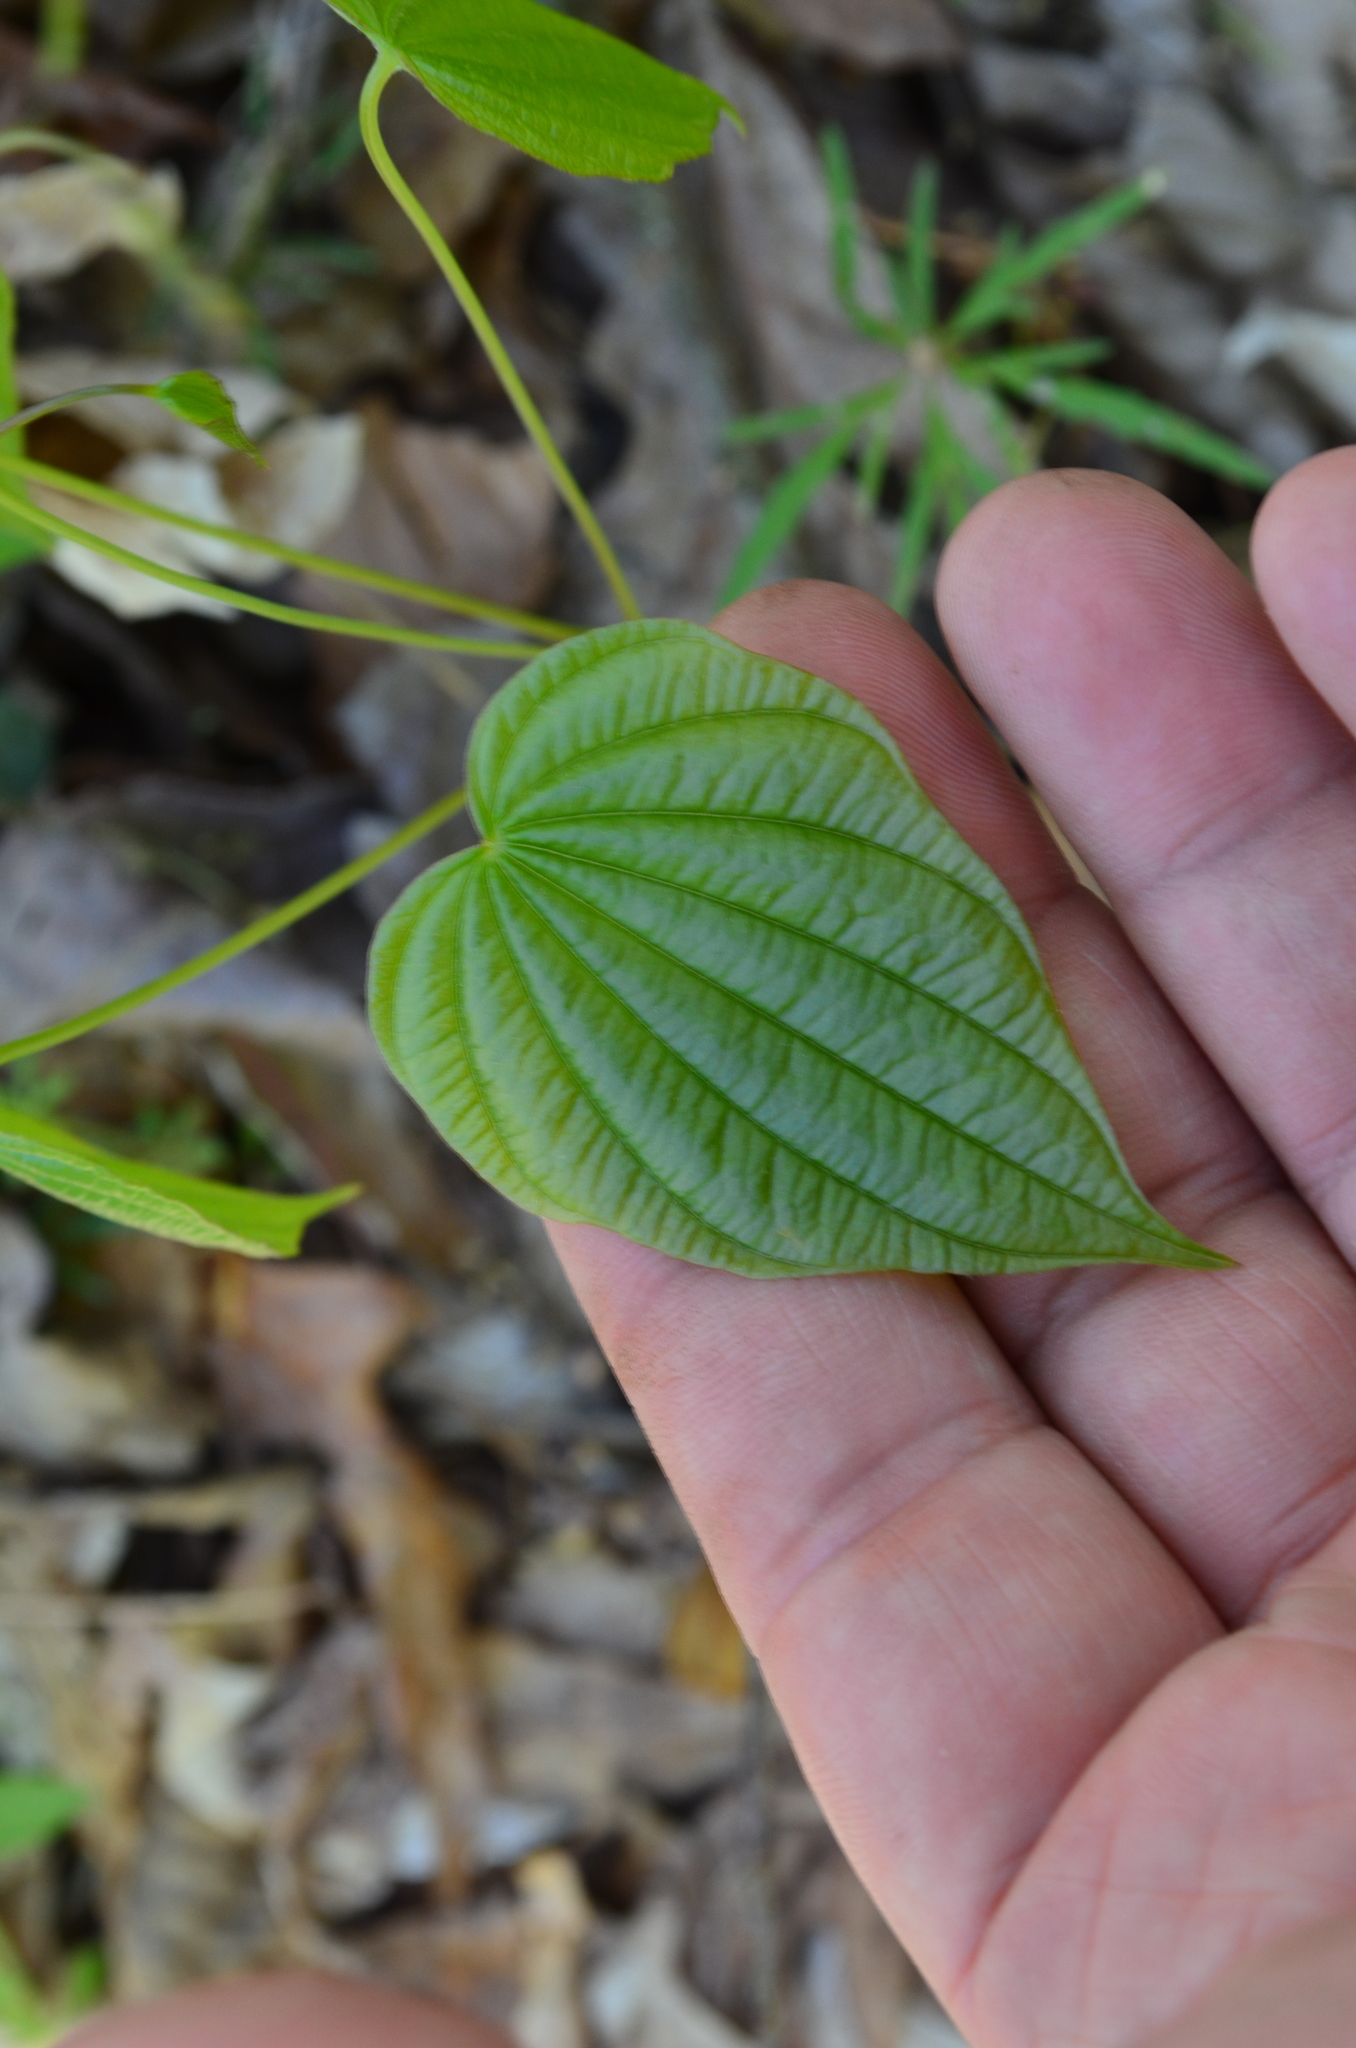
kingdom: Plantae
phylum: Tracheophyta
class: Liliopsida
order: Dioscoreales
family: Dioscoreaceae
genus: Dioscorea
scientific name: Dioscorea villosa
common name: Wild yam
